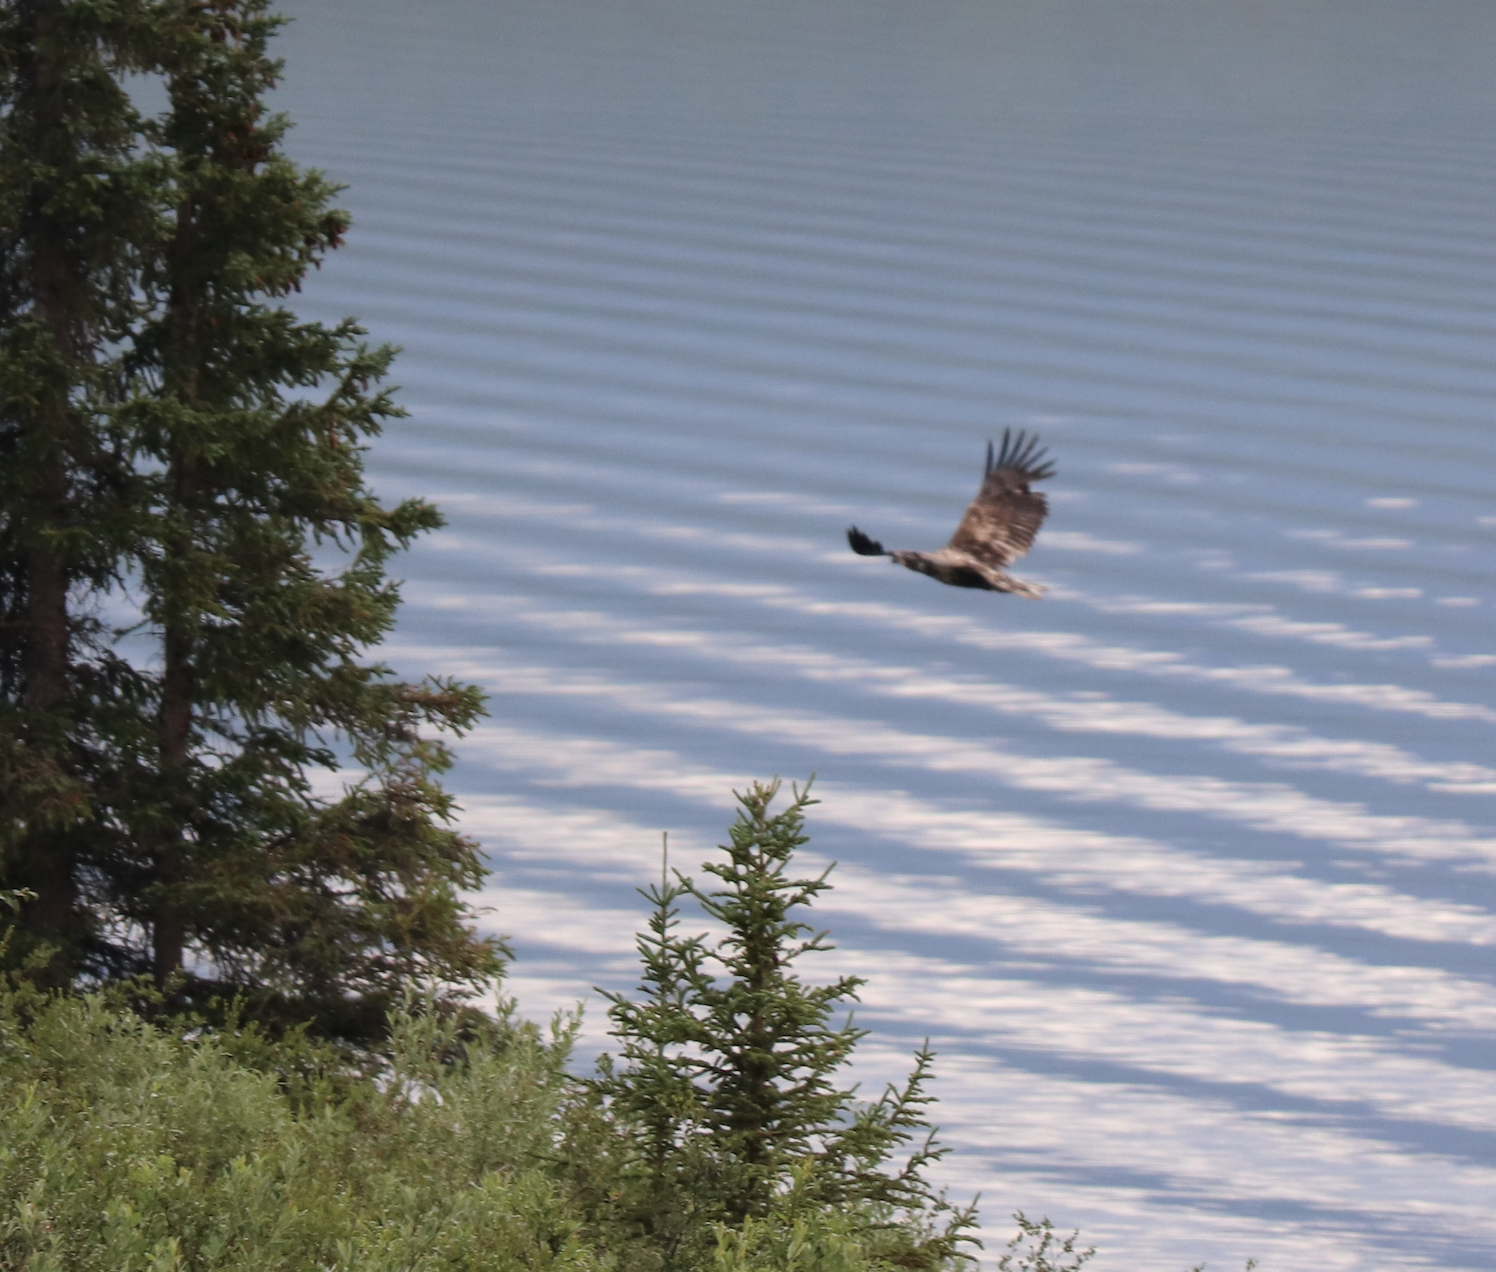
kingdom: Animalia
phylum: Chordata
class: Aves
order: Accipitriformes
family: Accipitridae
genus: Haliaeetus
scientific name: Haliaeetus leucocephalus
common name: Bald eagle
